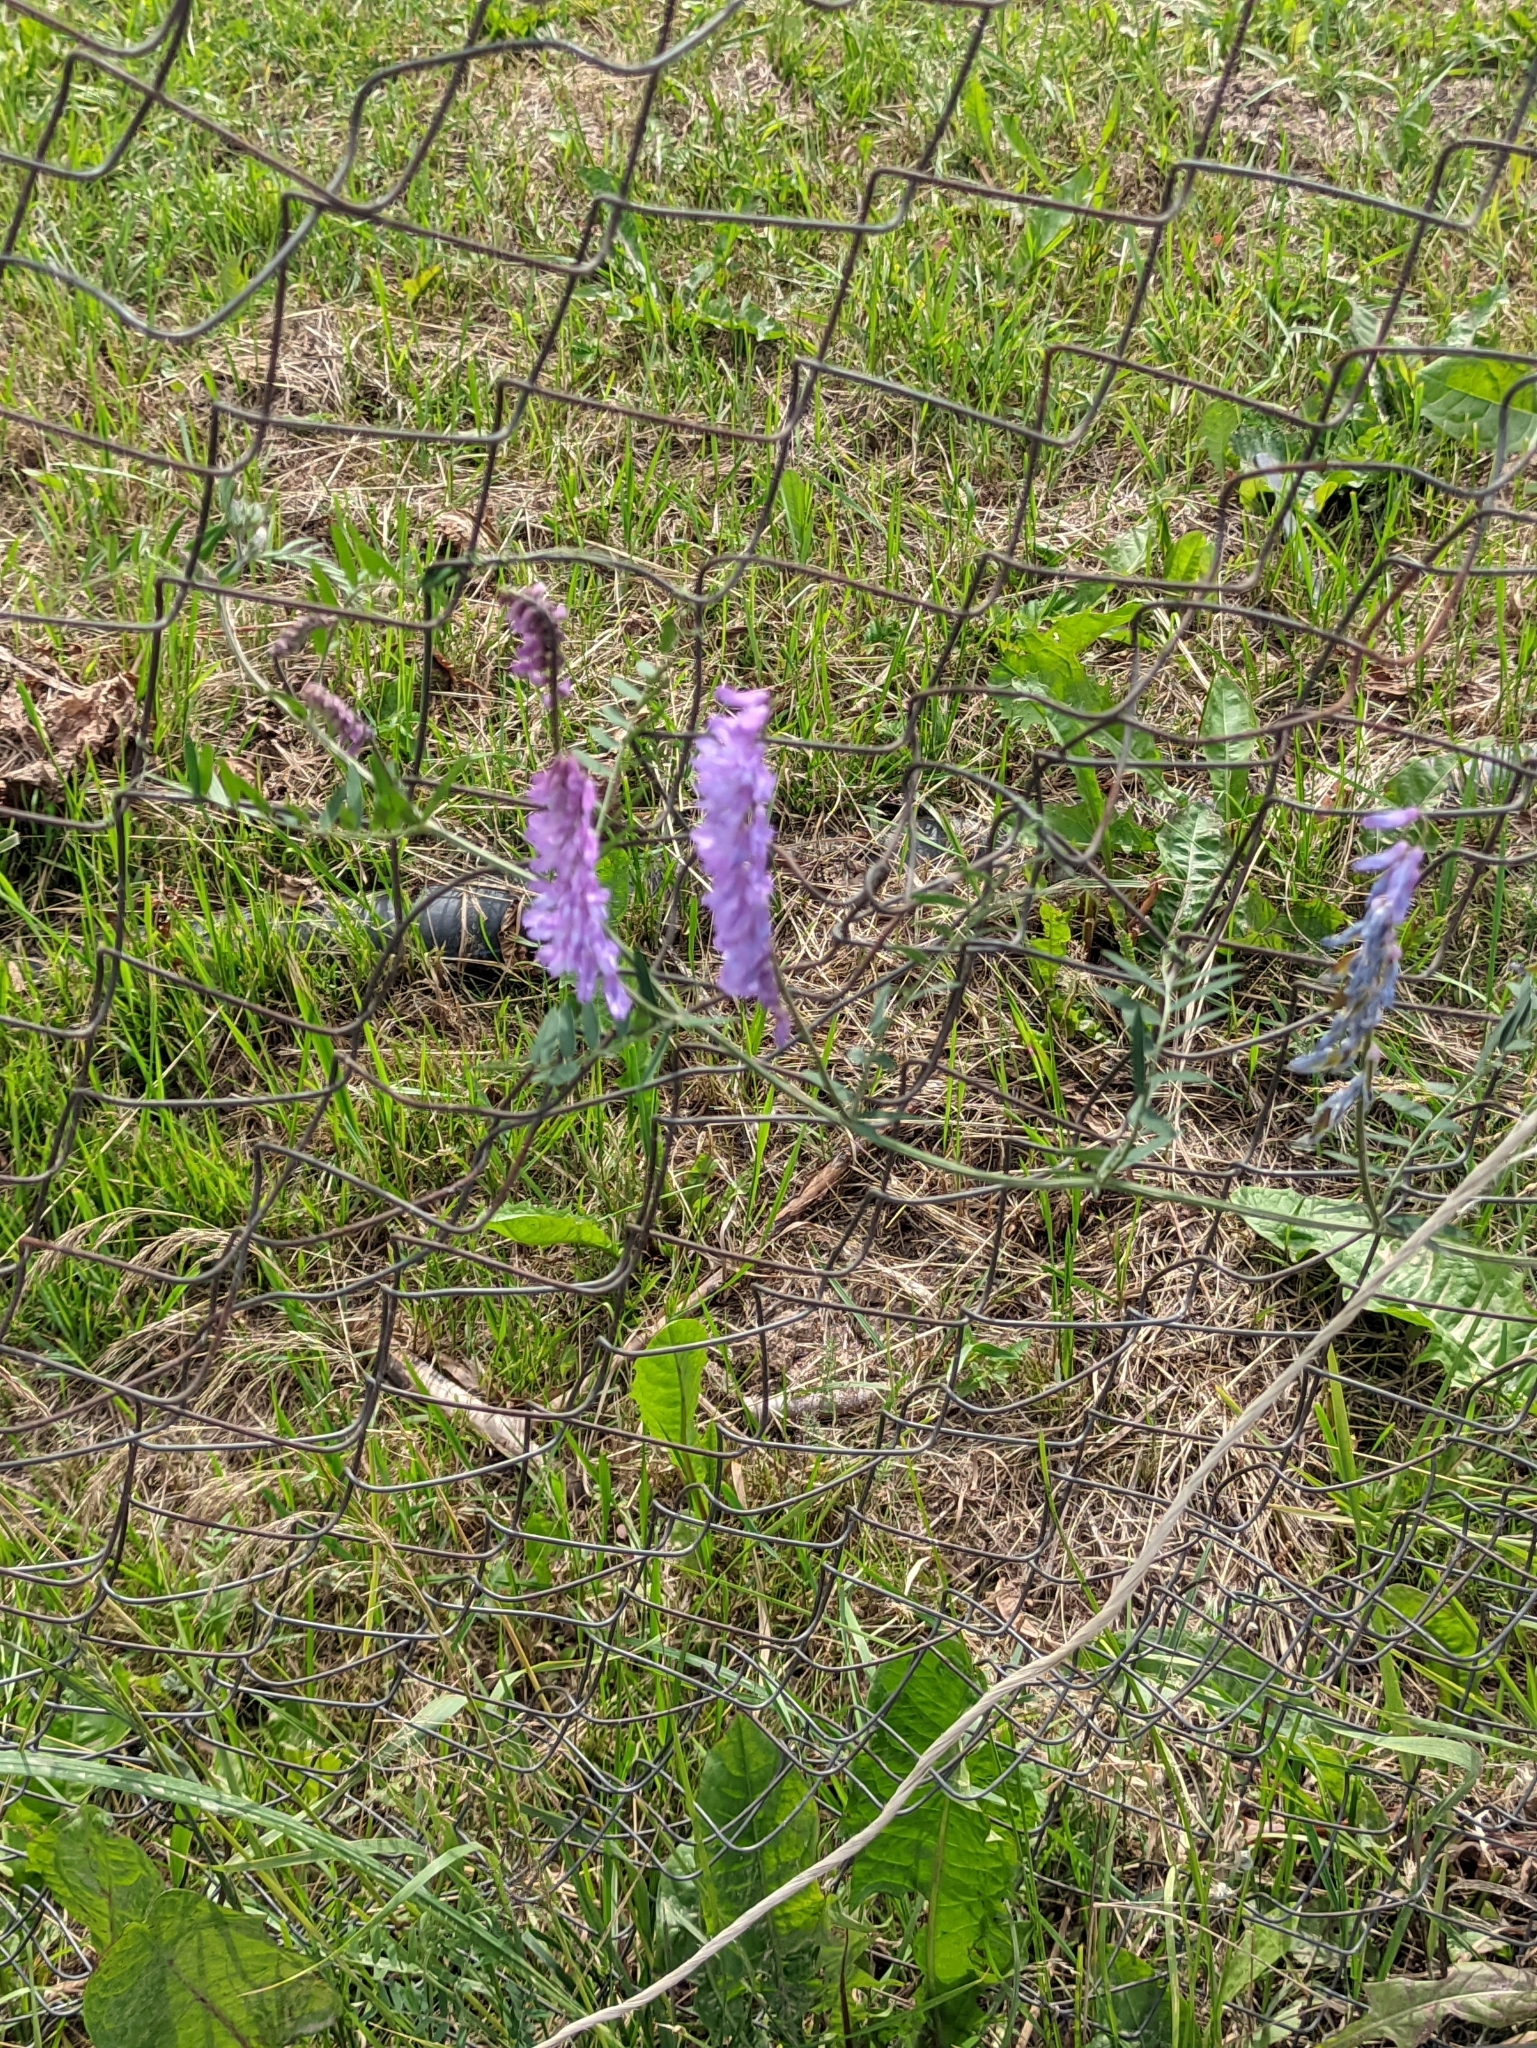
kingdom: Plantae
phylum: Tracheophyta
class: Magnoliopsida
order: Fabales
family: Fabaceae
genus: Vicia
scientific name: Vicia cracca
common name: Bird vetch
